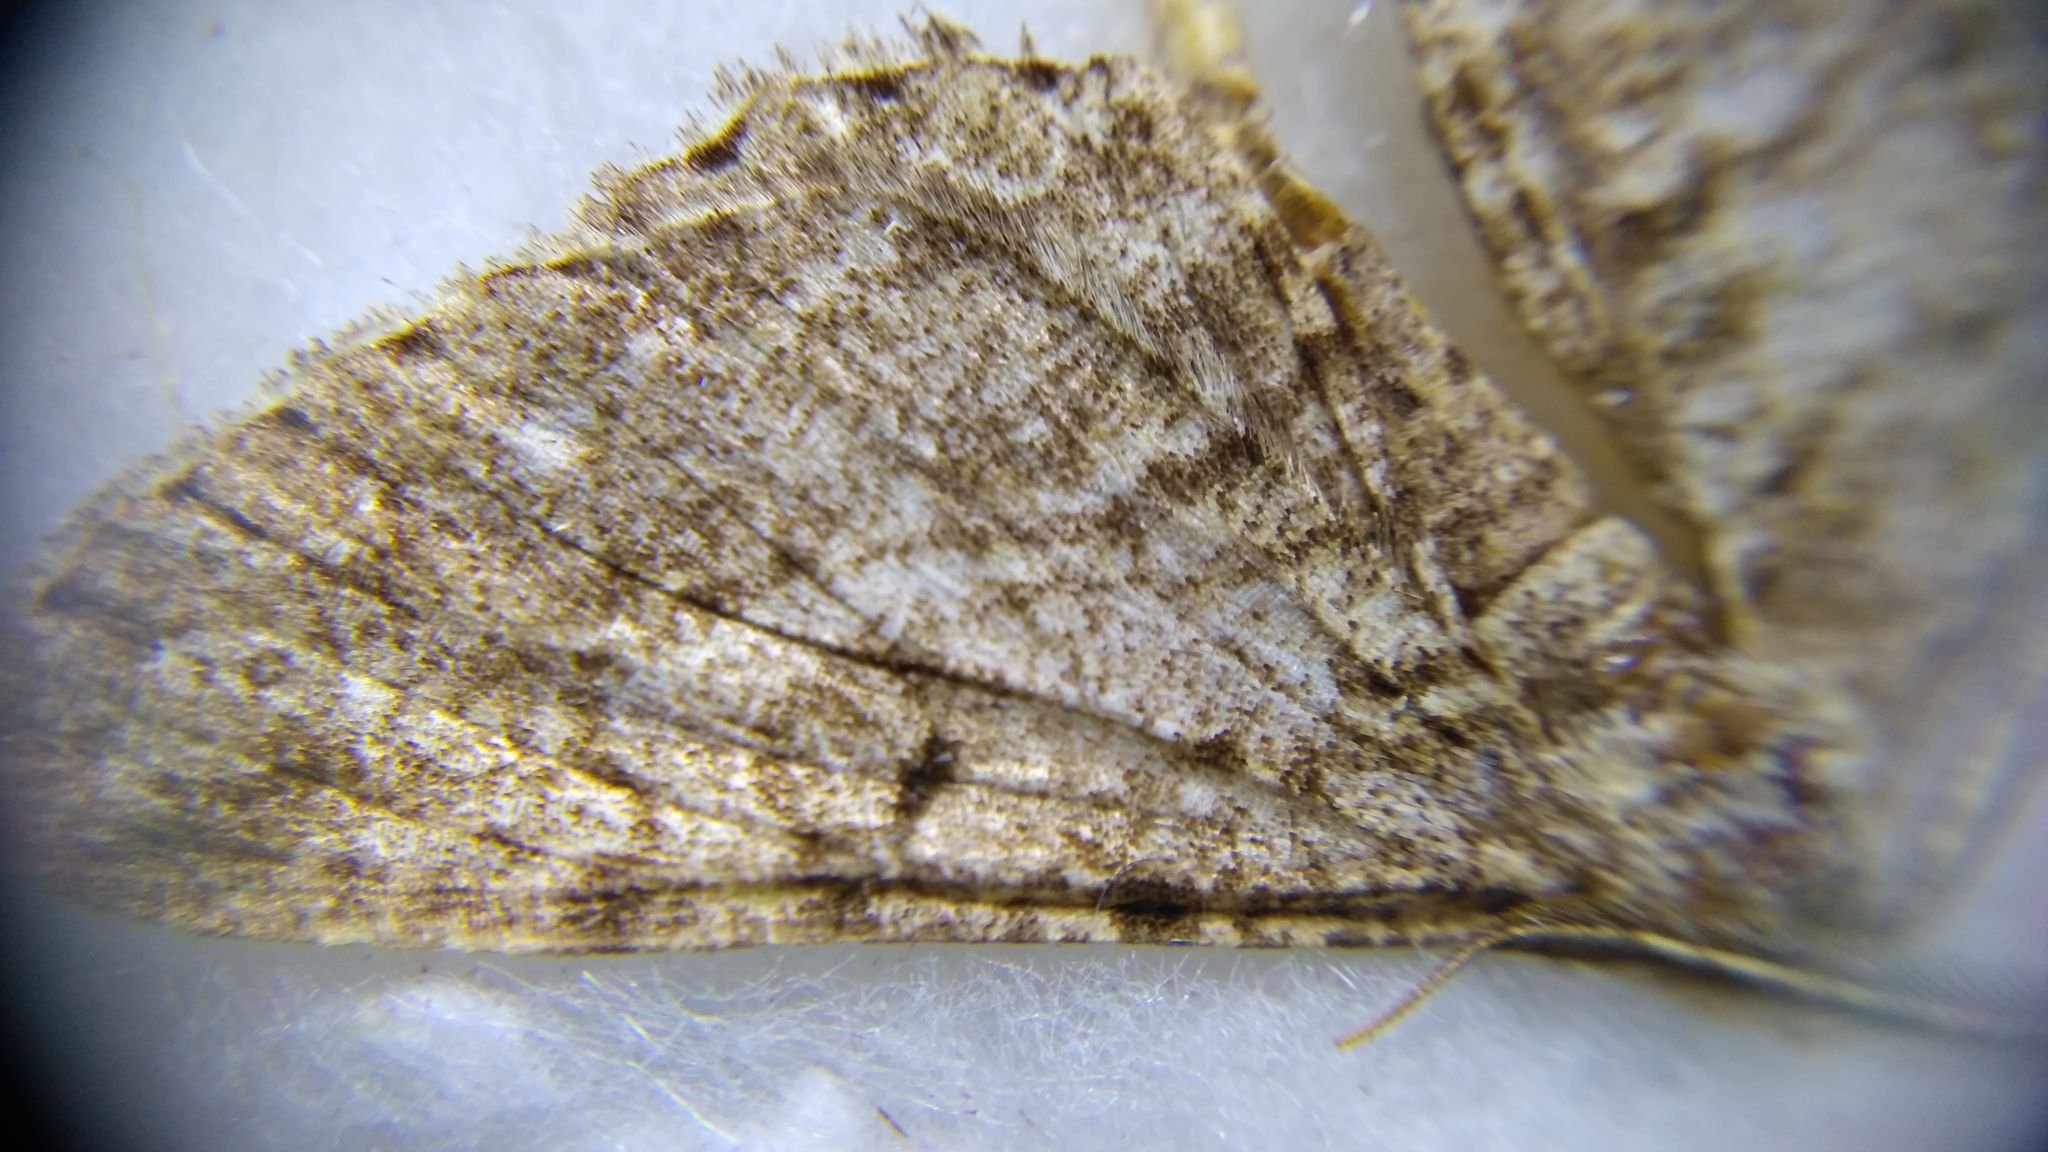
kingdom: Animalia
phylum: Arthropoda
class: Insecta
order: Lepidoptera
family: Geometridae
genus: Tephrina
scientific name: Tephrina murinaria
